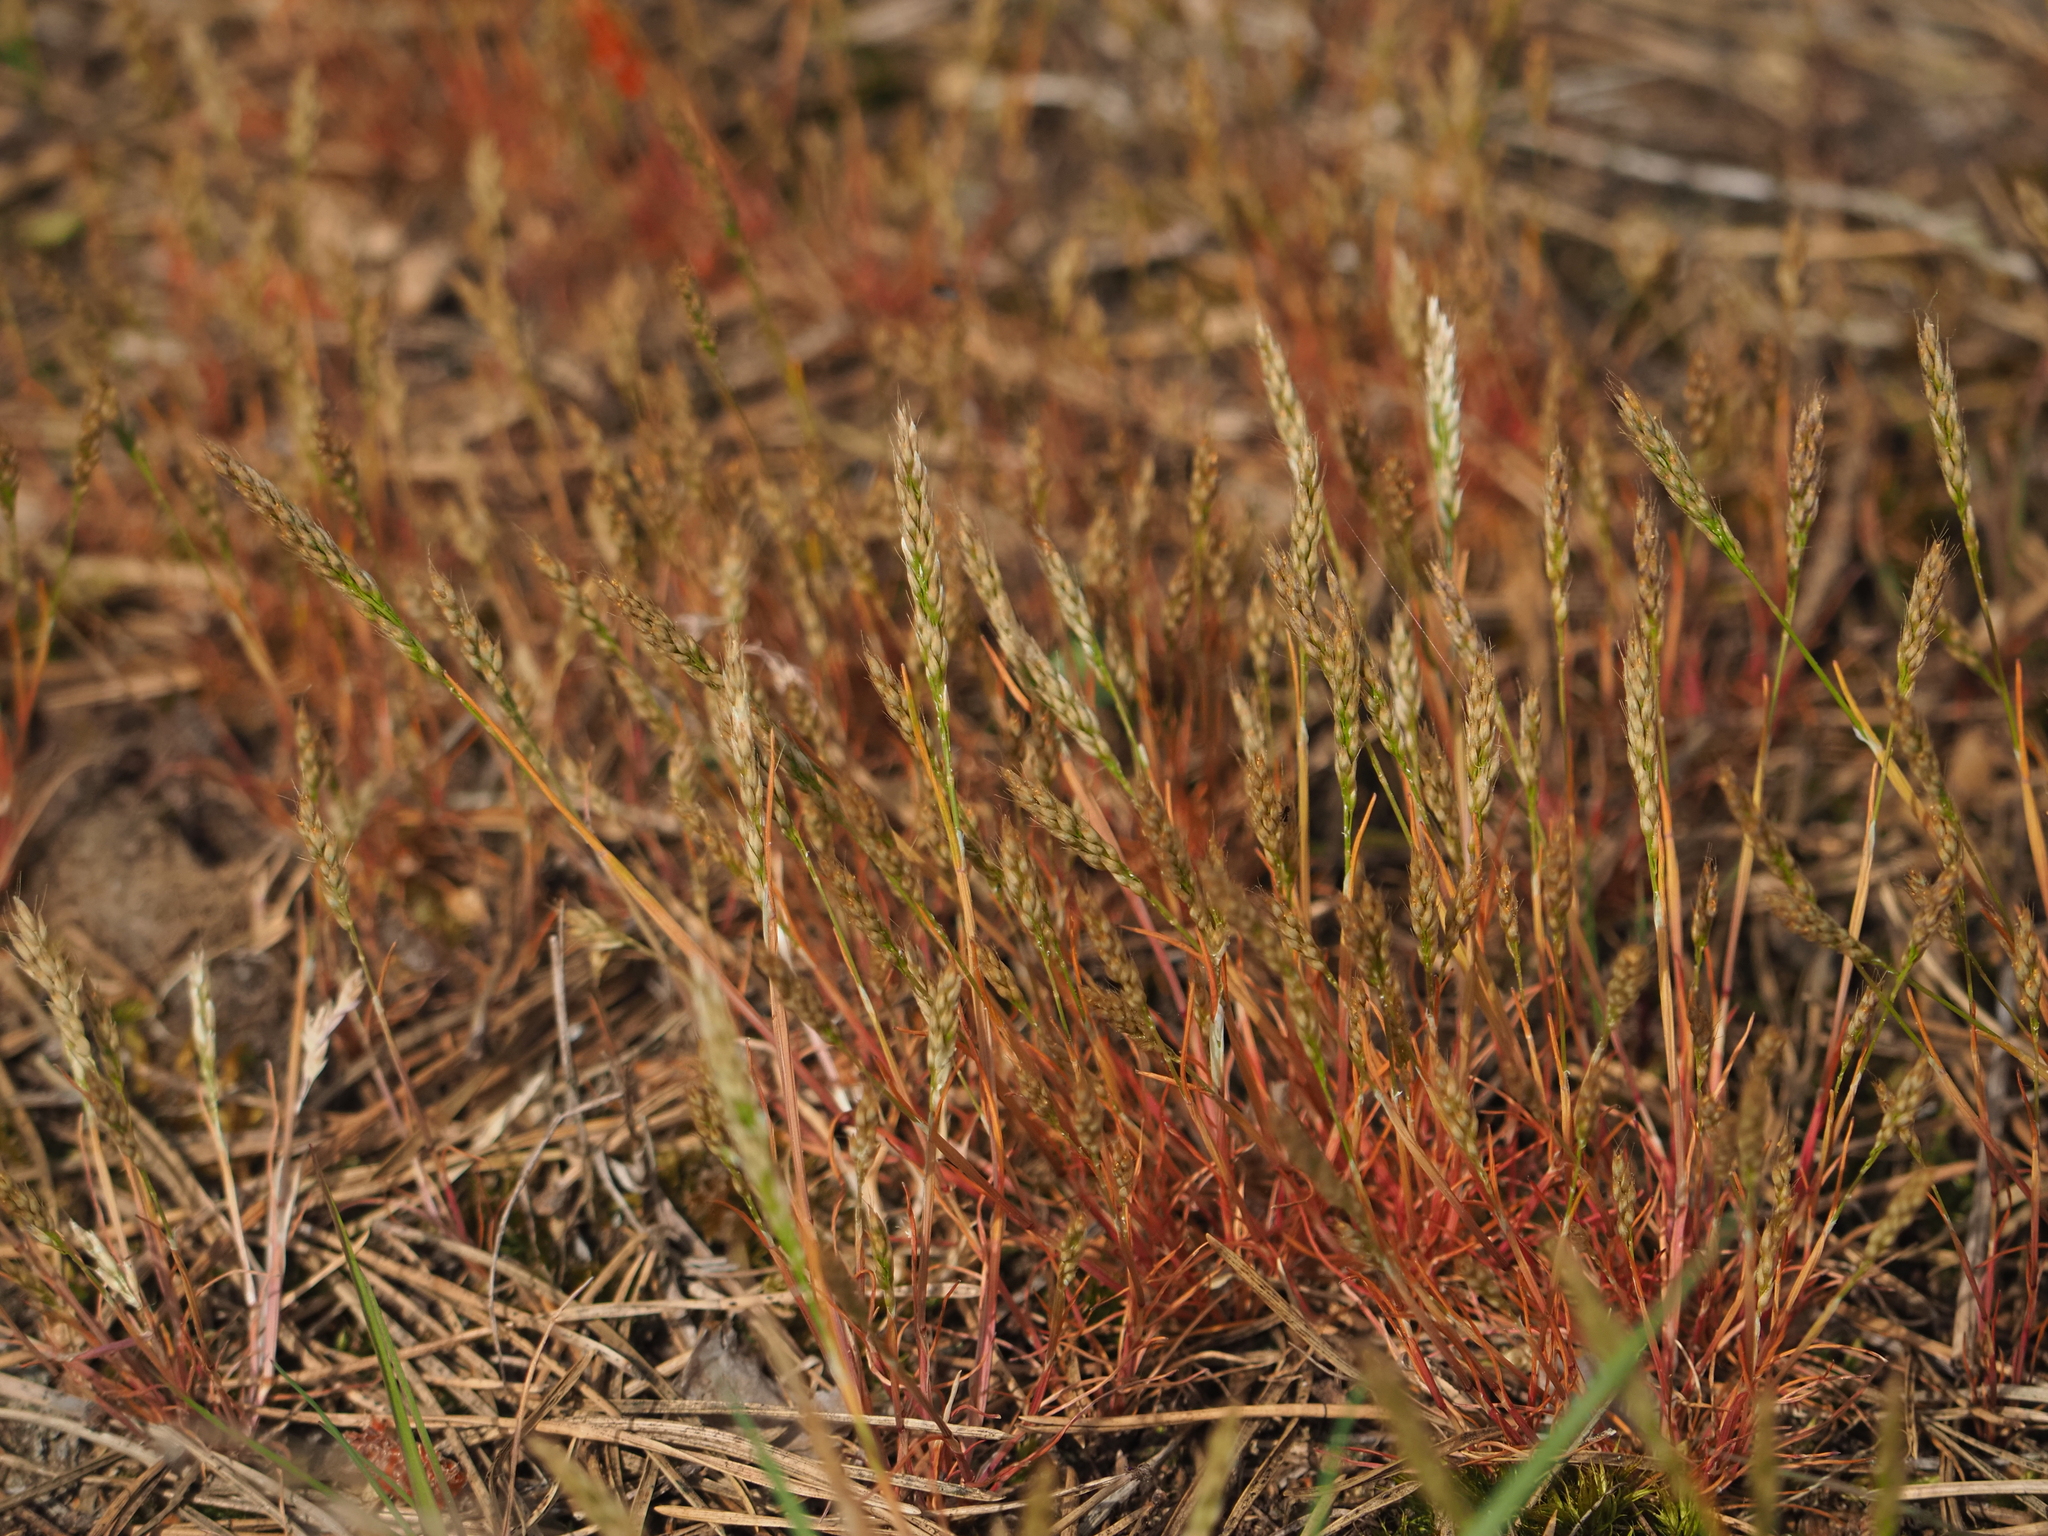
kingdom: Plantae
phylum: Tracheophyta
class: Liliopsida
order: Poales
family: Poaceae
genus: Aira
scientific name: Aira praecox
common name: Early hair-grass
